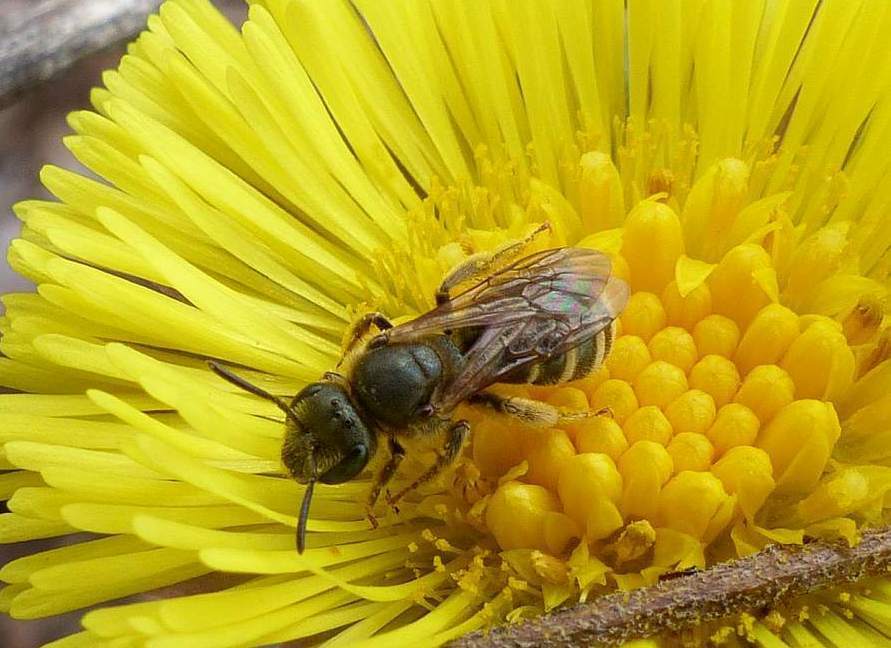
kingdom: Animalia
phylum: Arthropoda
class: Insecta
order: Hymenoptera
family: Halictidae
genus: Halictus
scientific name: Halictus confusus
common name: Southern bronze furrow bee
